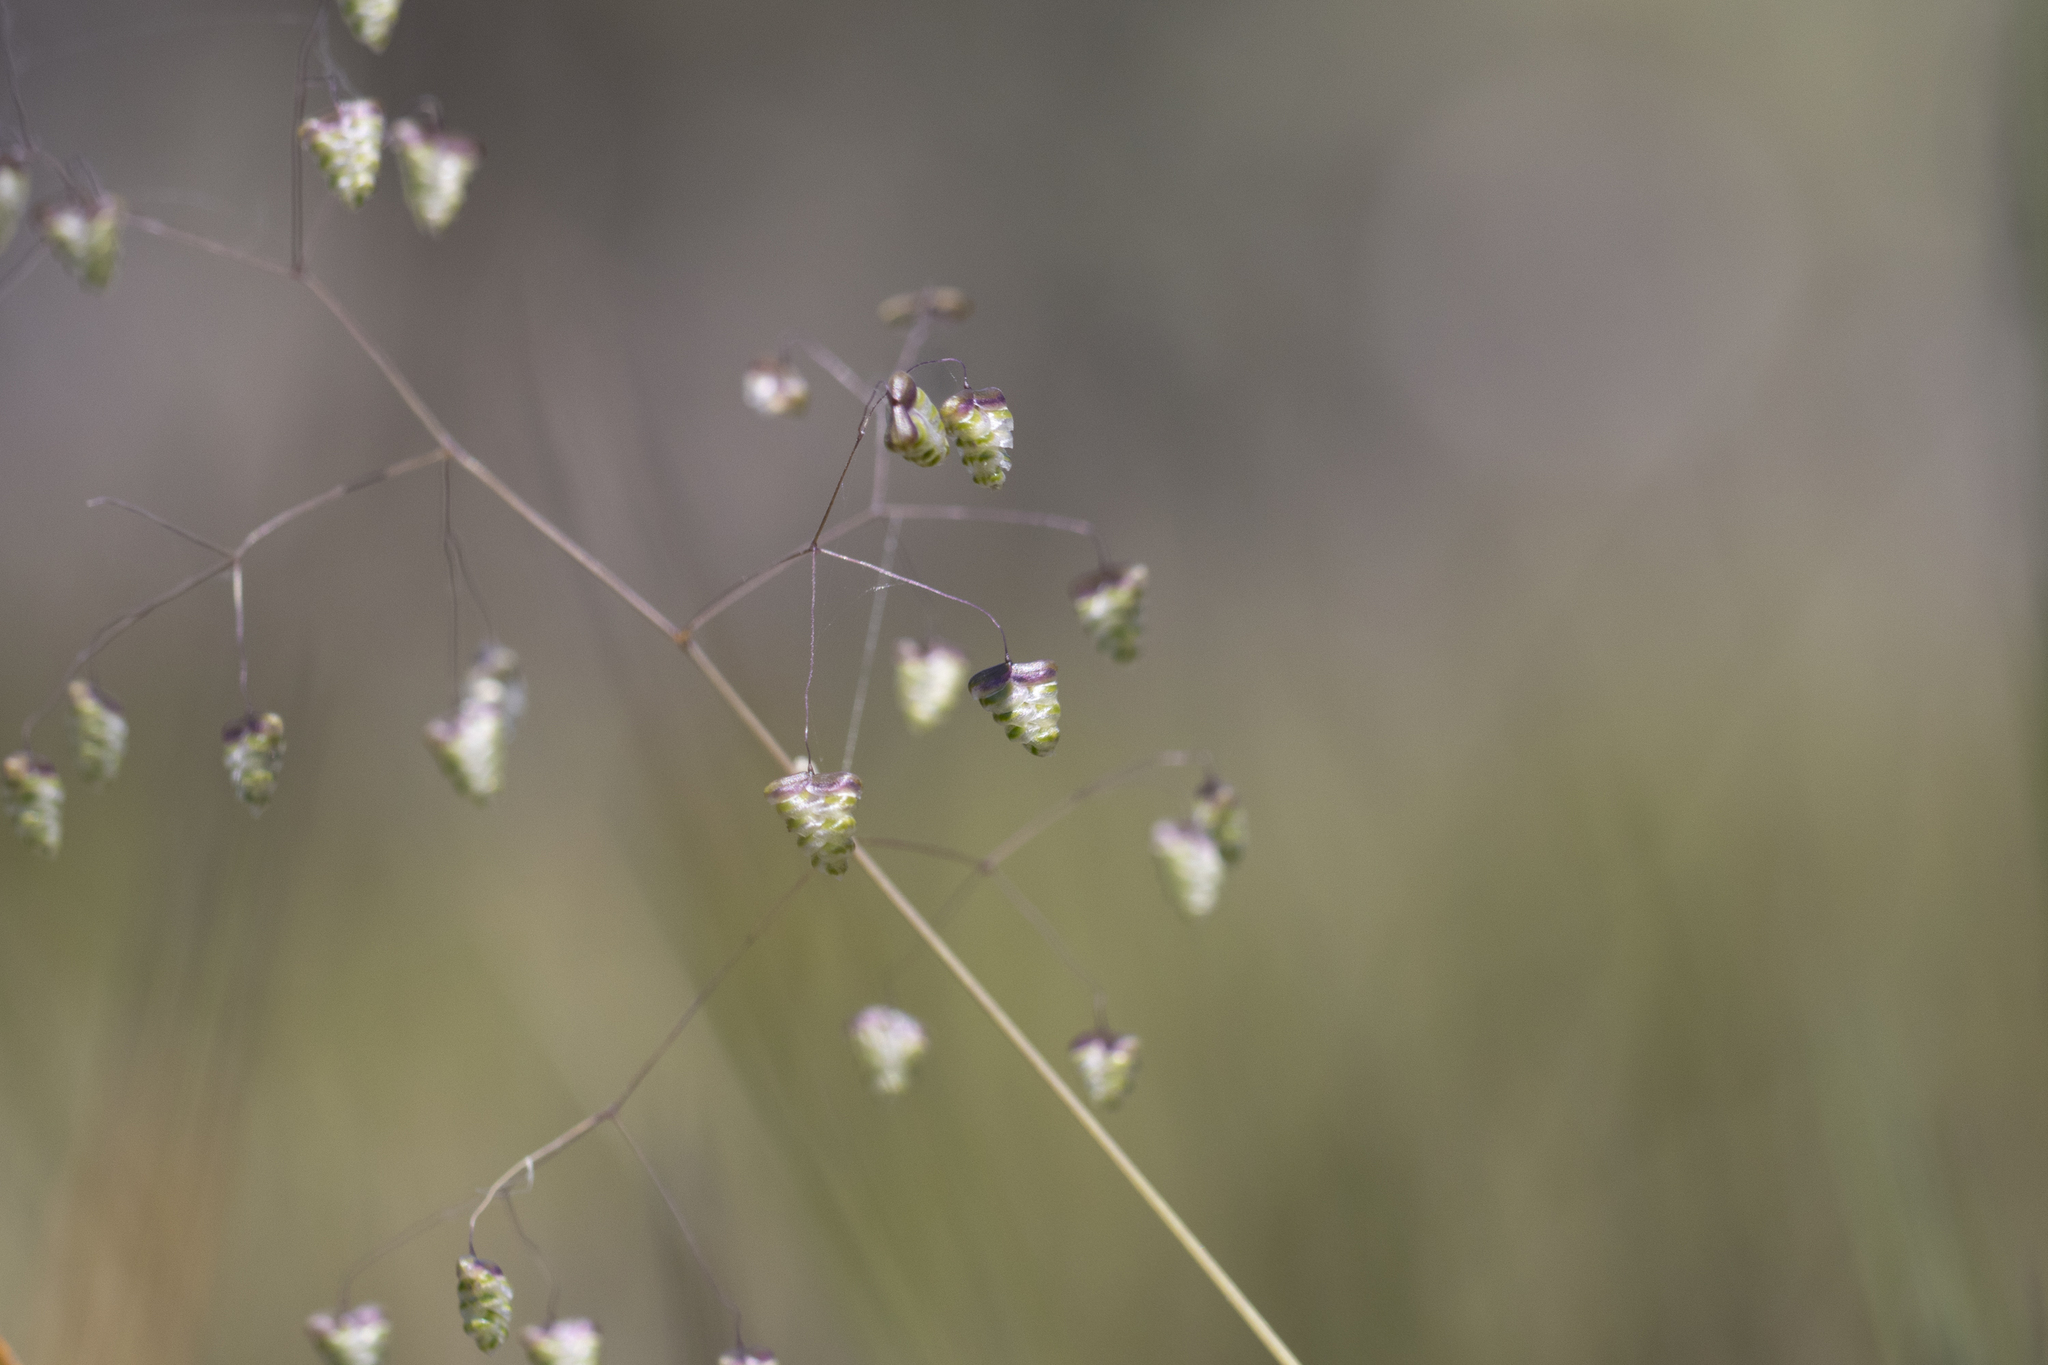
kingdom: Plantae
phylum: Tracheophyta
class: Liliopsida
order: Poales
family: Poaceae
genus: Briza
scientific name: Briza minor
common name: Lesser quaking-grass
